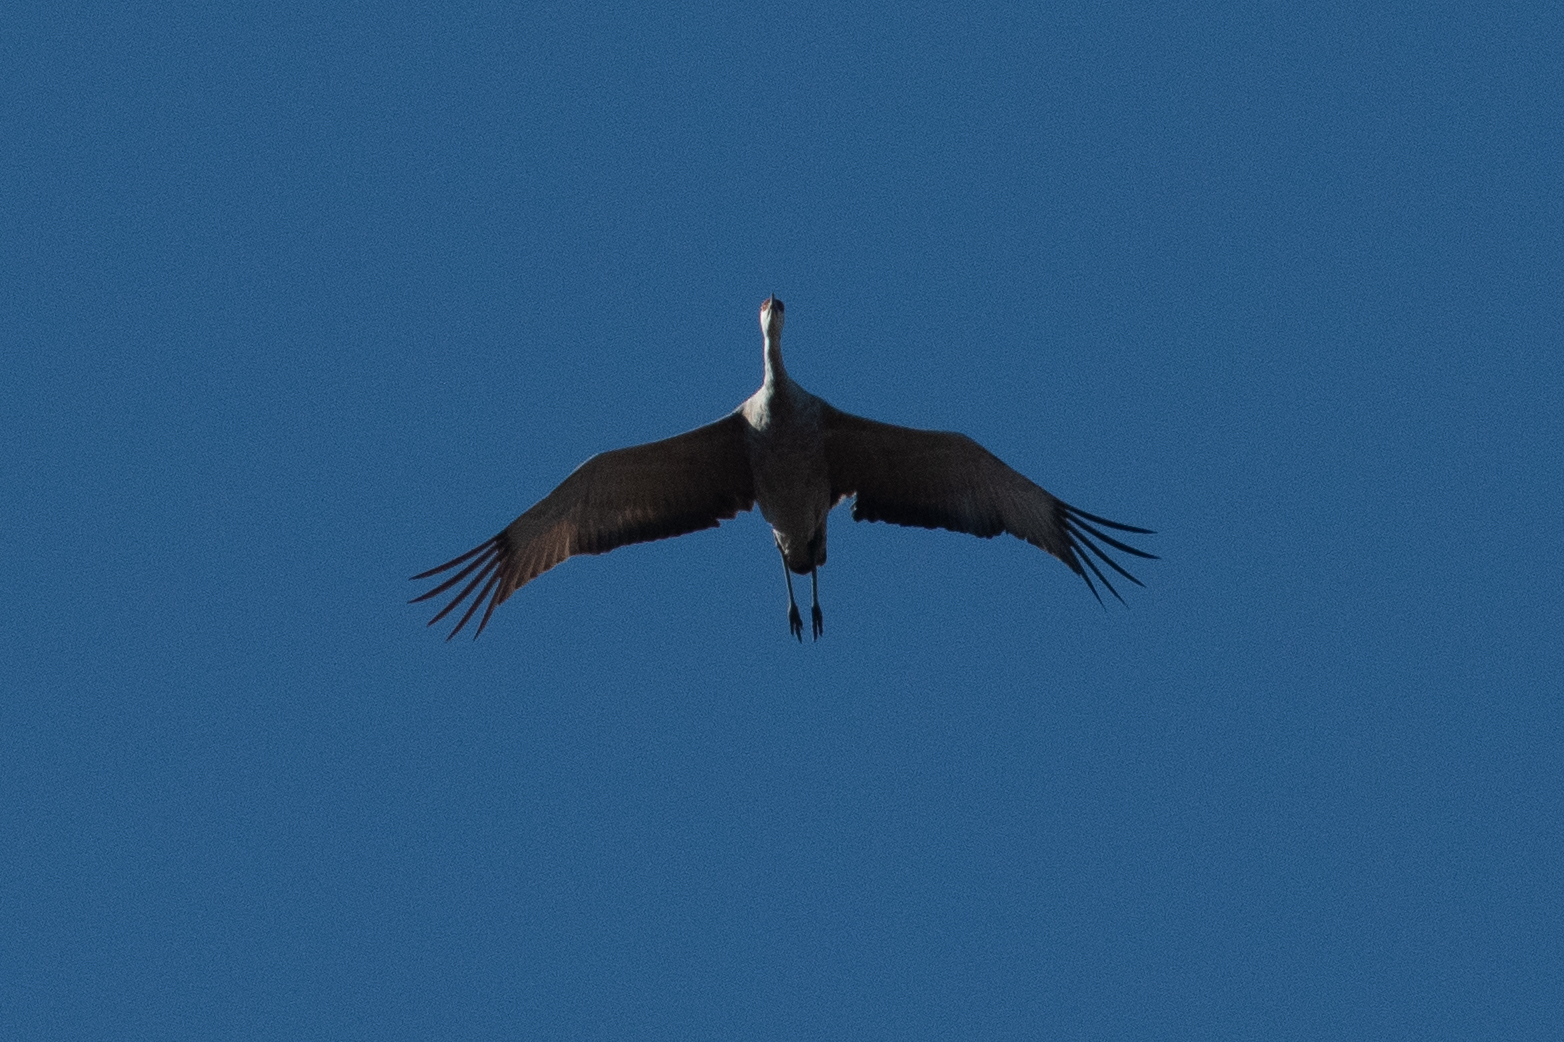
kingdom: Animalia
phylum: Chordata
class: Aves
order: Gruiformes
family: Gruidae
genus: Grus
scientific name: Grus canadensis
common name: Sandhill crane
